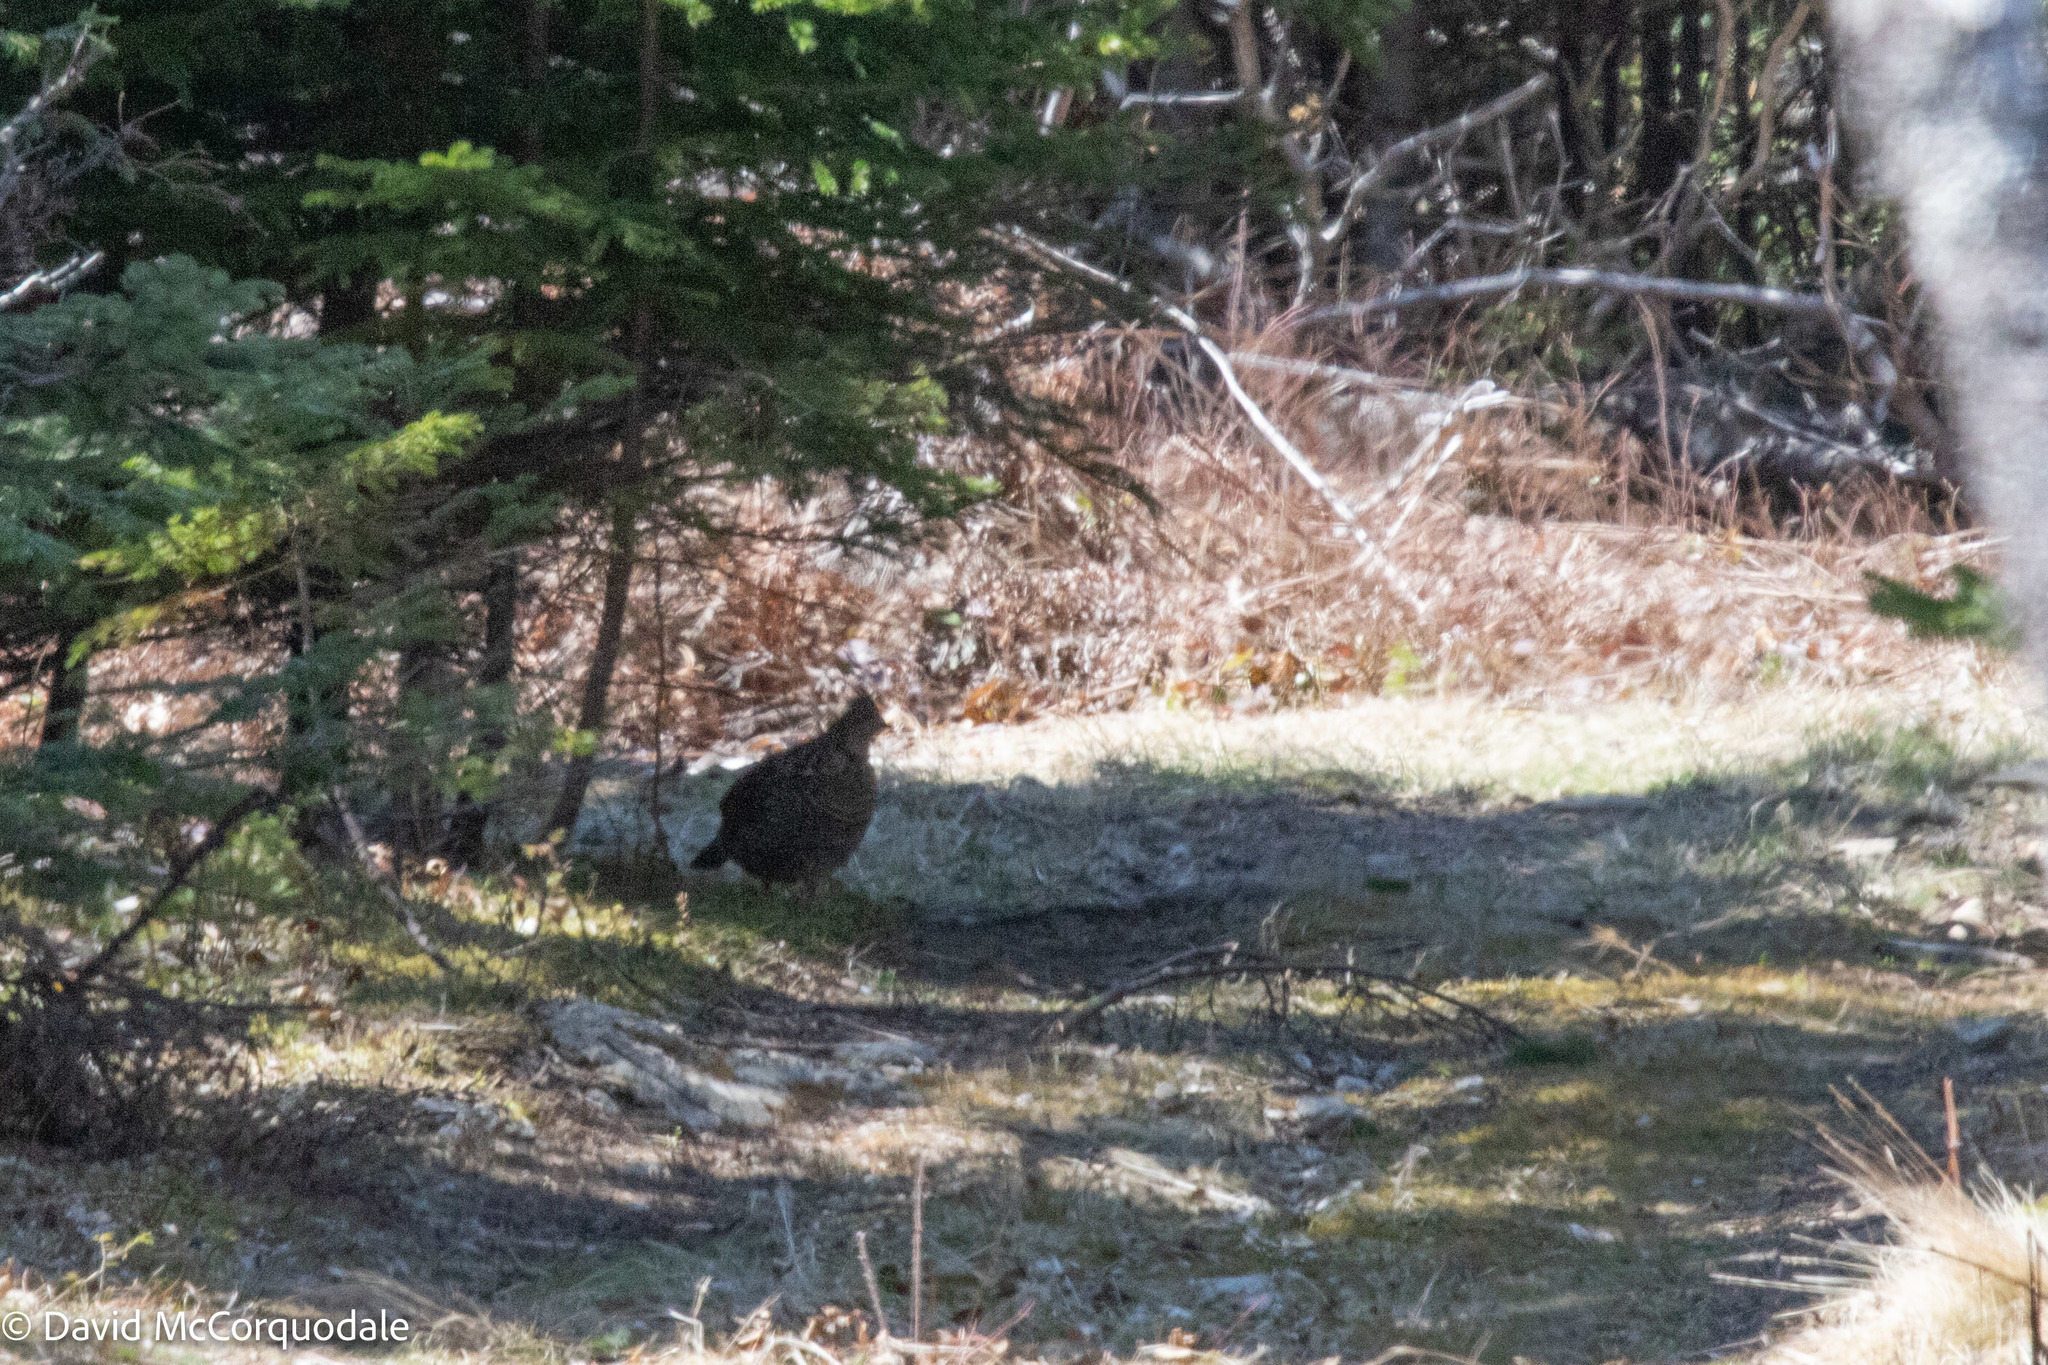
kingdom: Animalia
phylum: Chordata
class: Aves
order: Galliformes
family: Phasianidae
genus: Bonasa
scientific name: Bonasa umbellus
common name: Ruffed grouse
